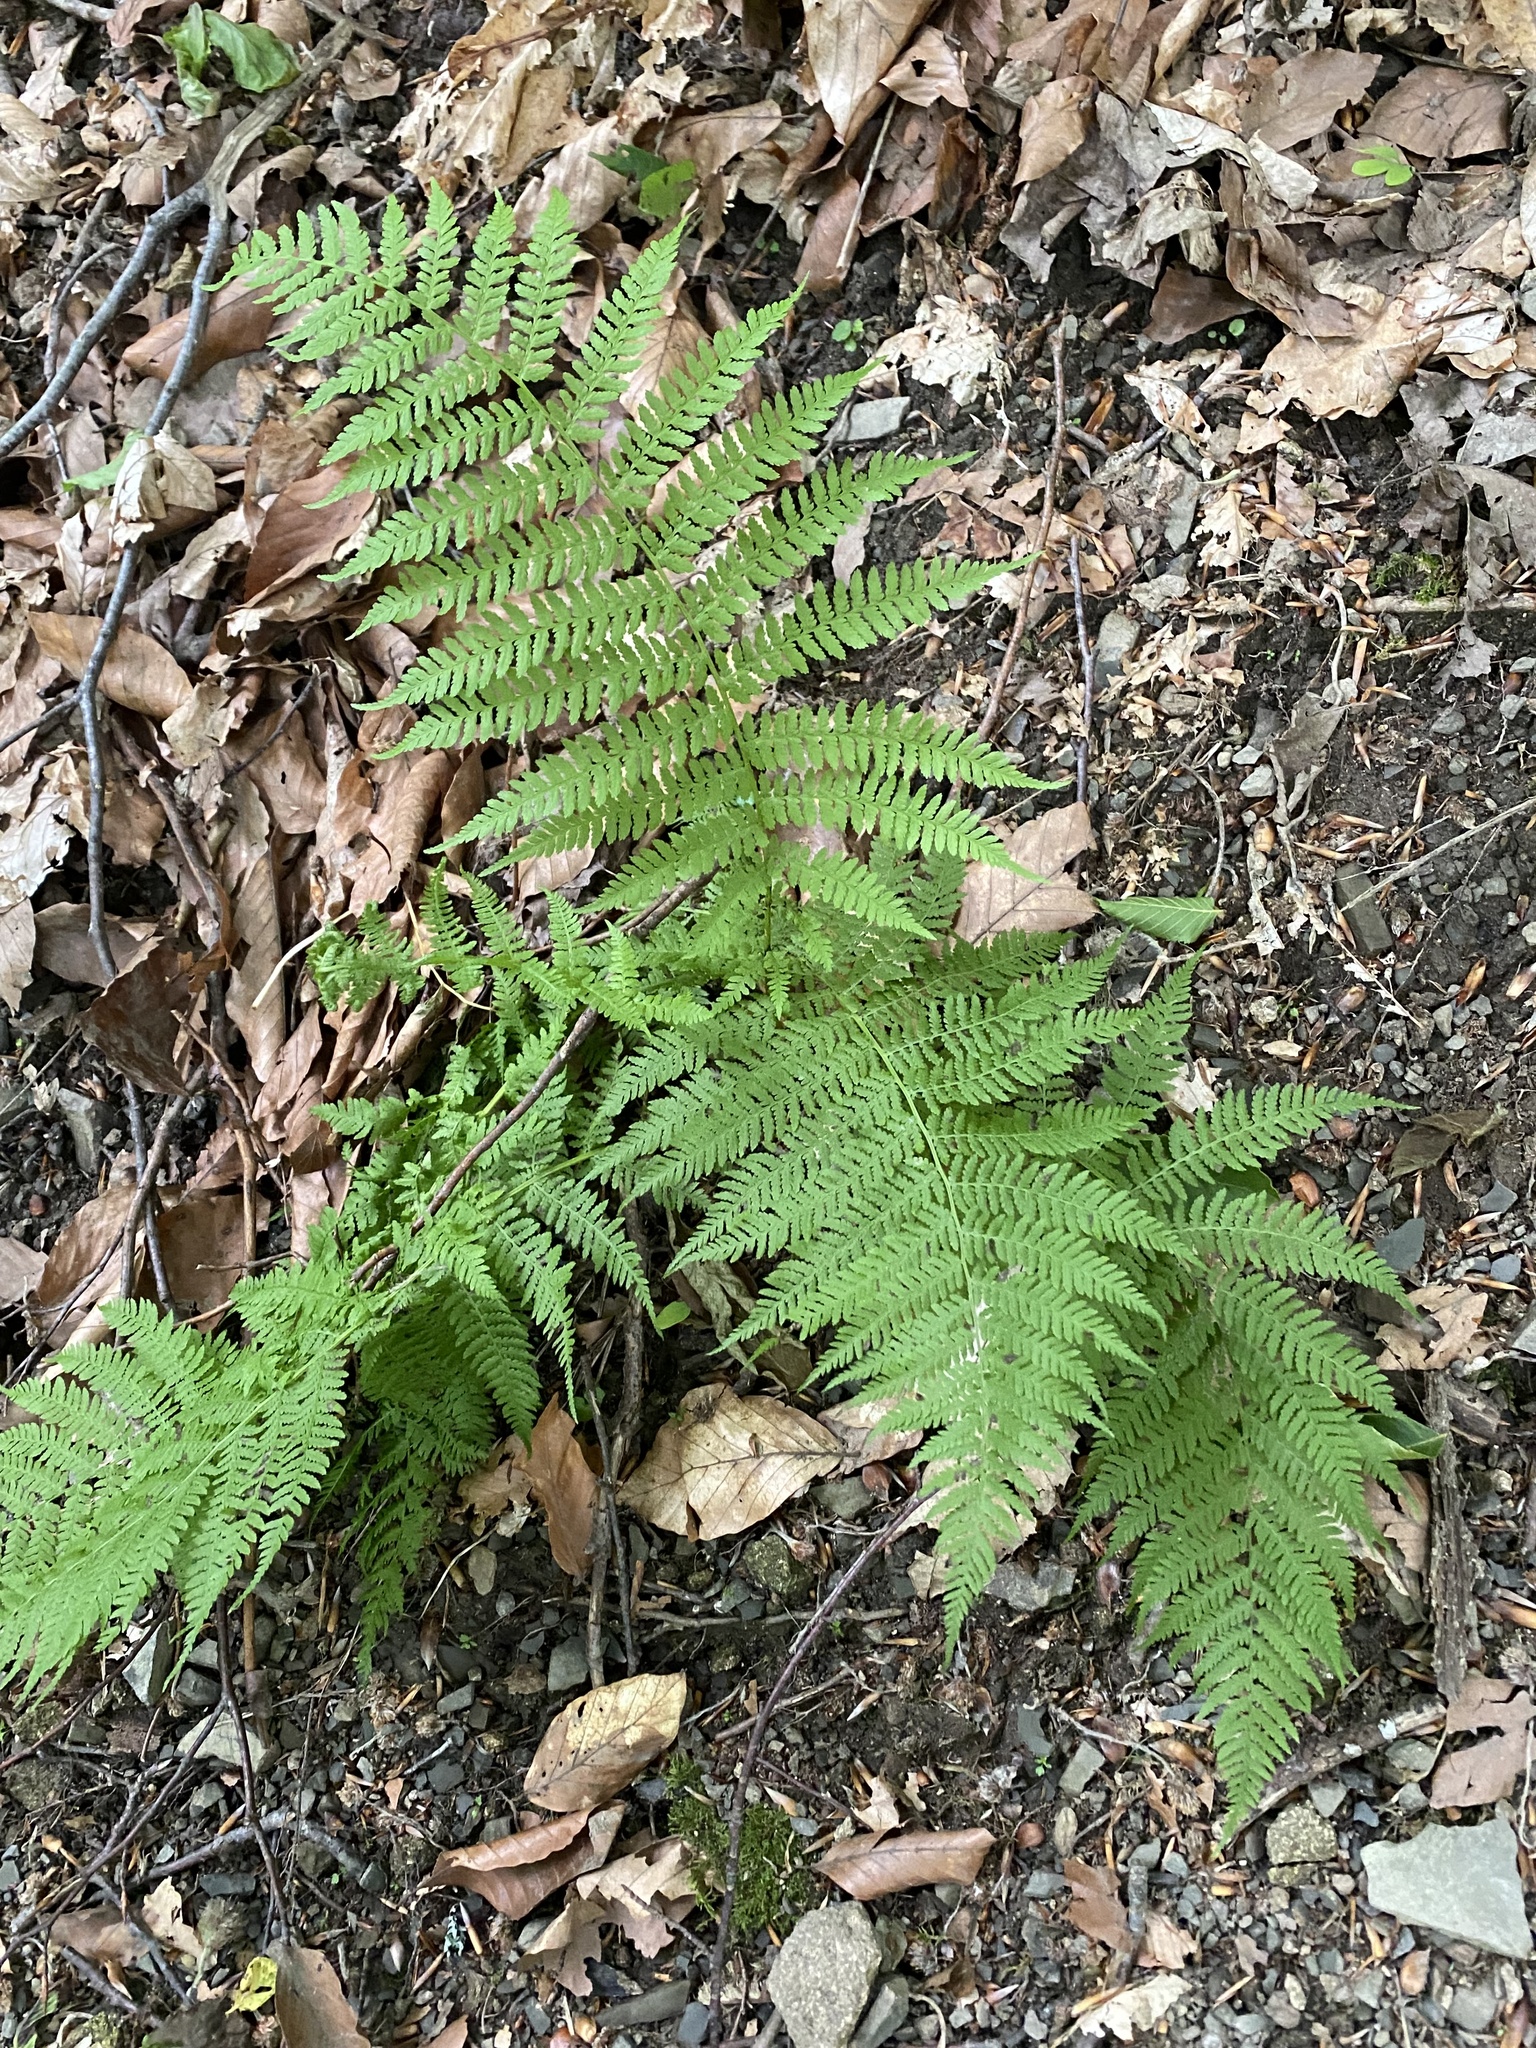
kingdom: Plantae
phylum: Tracheophyta
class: Polypodiopsida
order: Polypodiales
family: Athyriaceae
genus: Athyrium
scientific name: Athyrium filix-femina
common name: Lady fern
